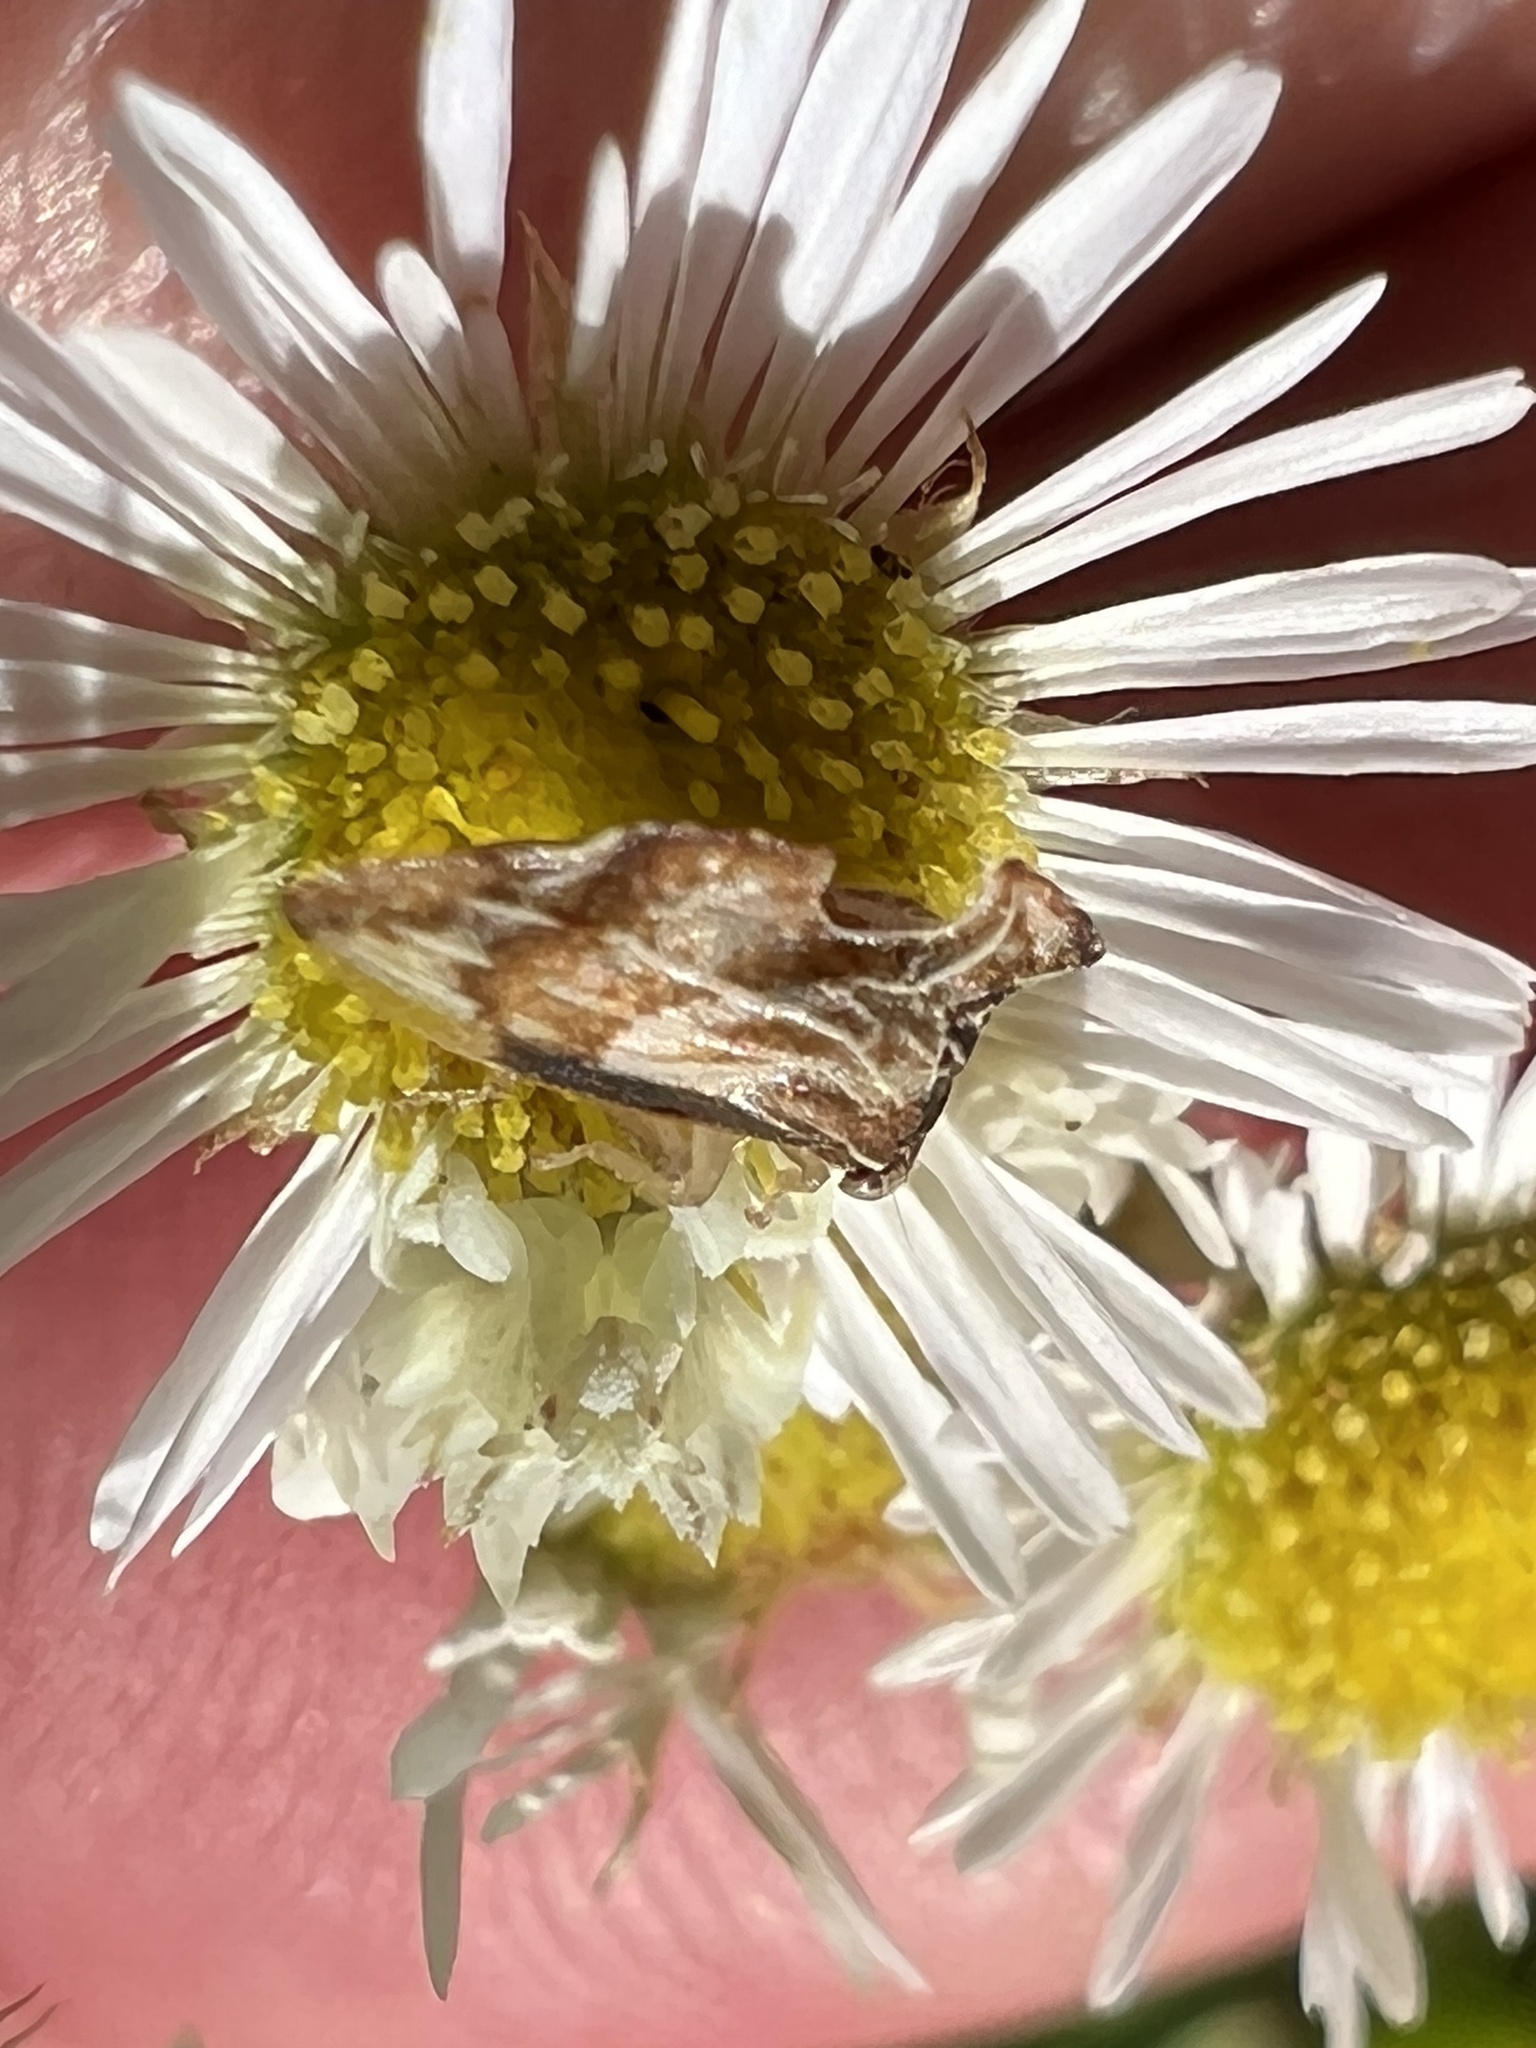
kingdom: Animalia
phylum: Arthropoda
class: Insecta
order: Hemiptera
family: Membracidae
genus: Entylia
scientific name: Entylia carinata
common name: Keeled treehopper
